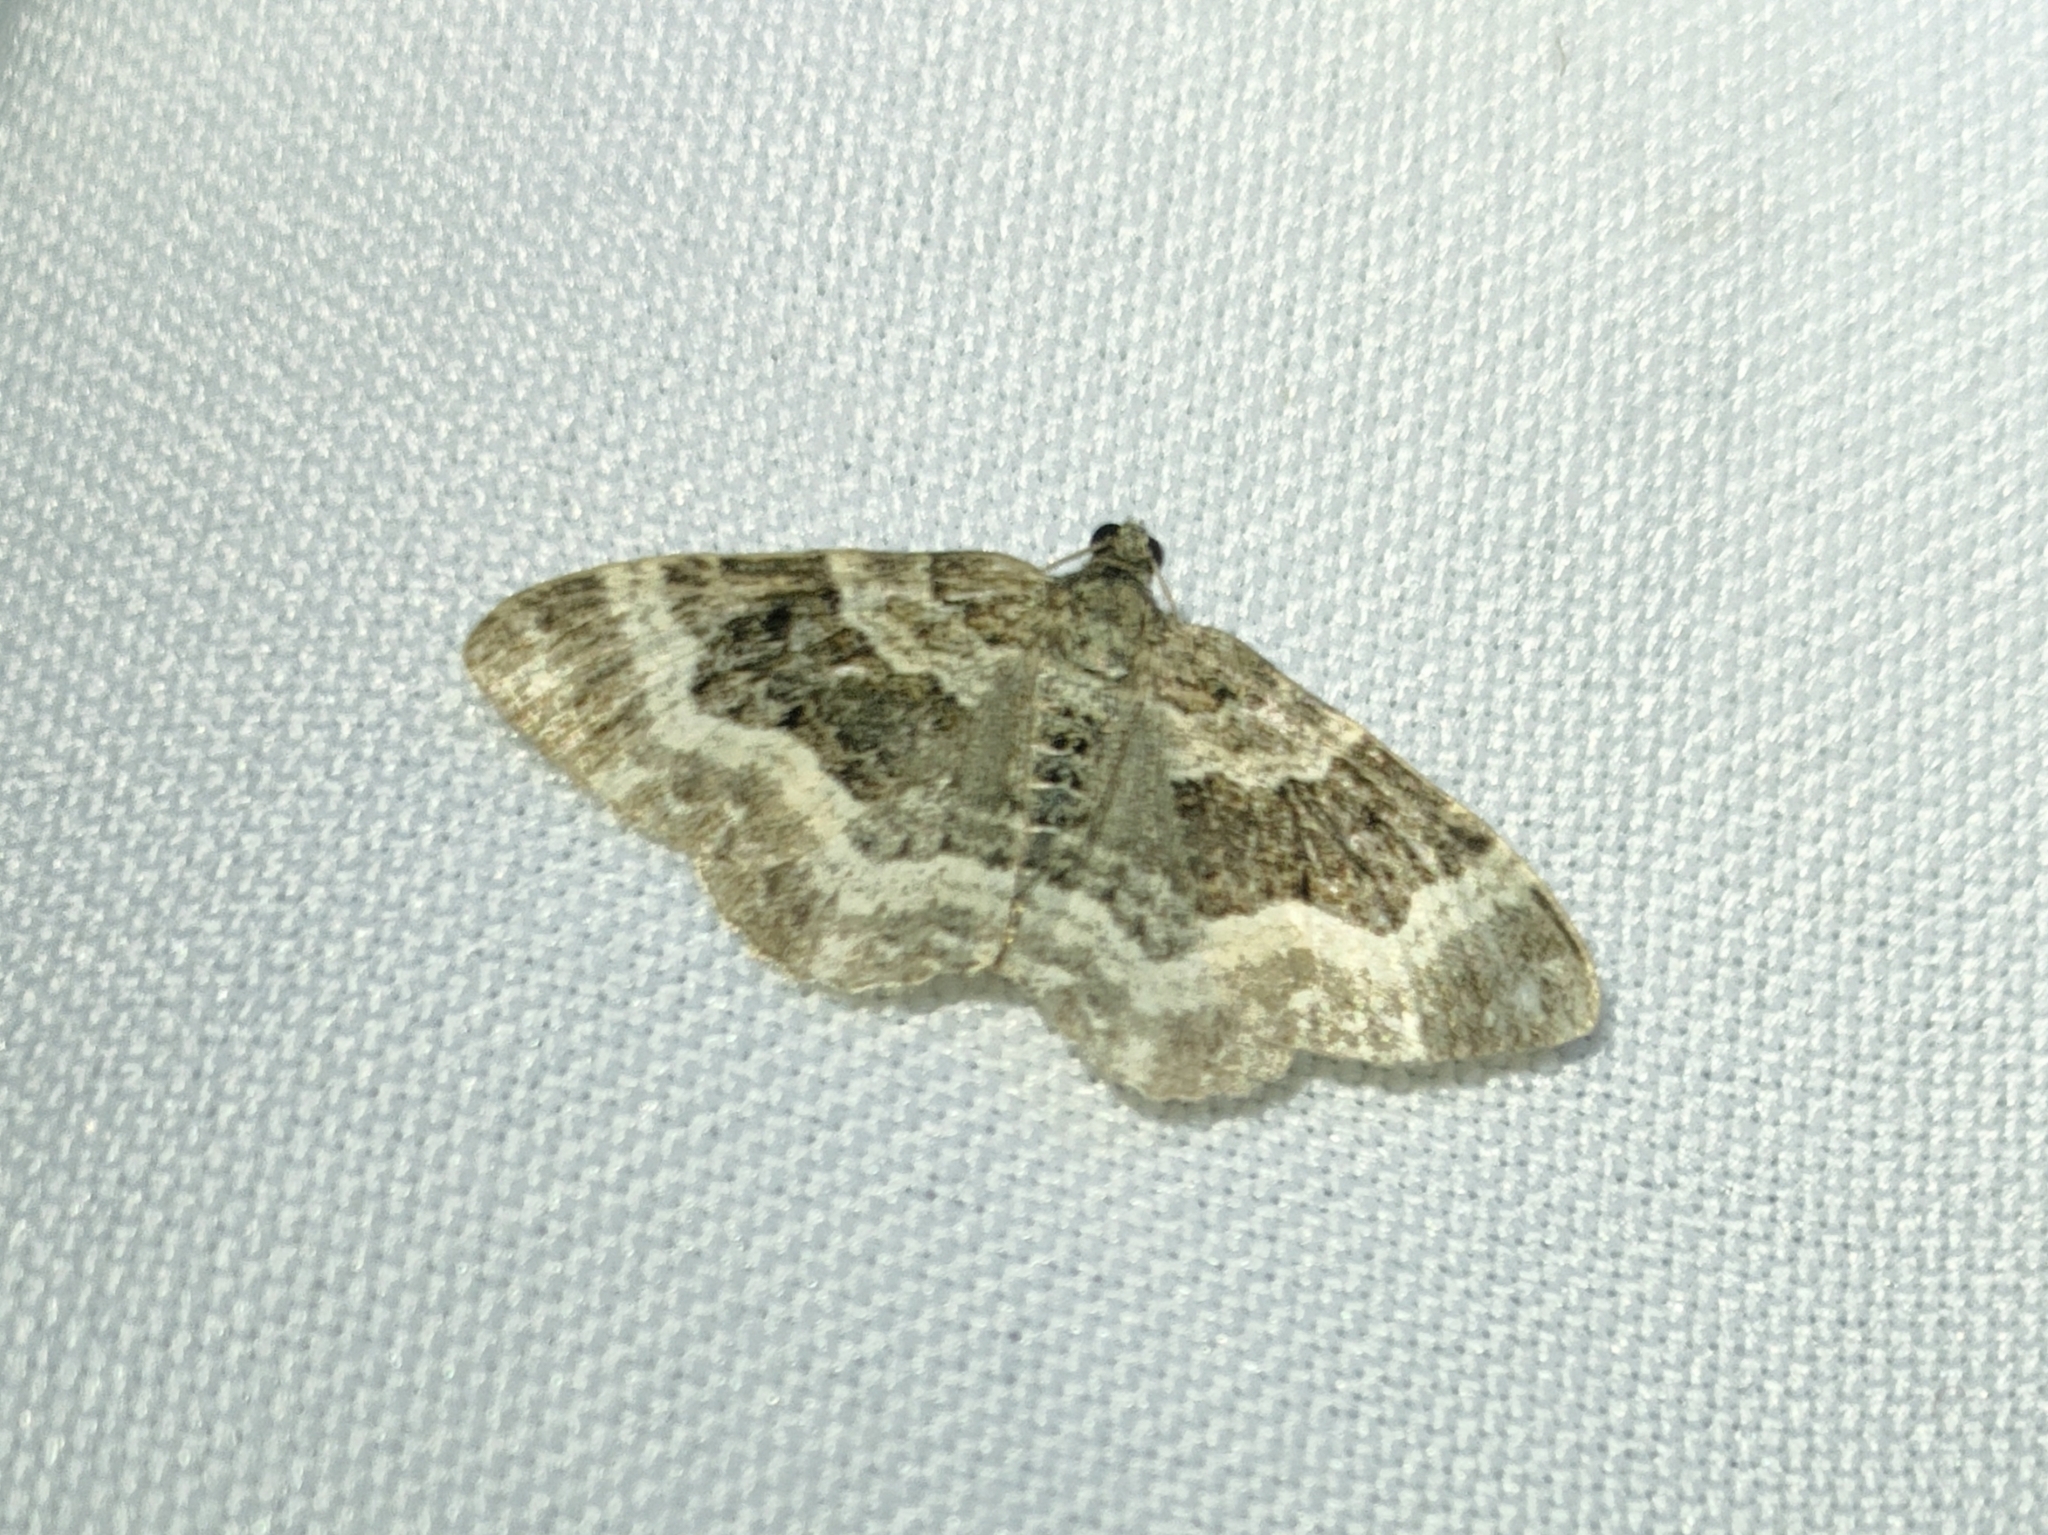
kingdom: Animalia
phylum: Arthropoda
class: Insecta
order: Lepidoptera
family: Geometridae
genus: Epirrhoe
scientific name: Epirrhoe alternata
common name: Common carpet
